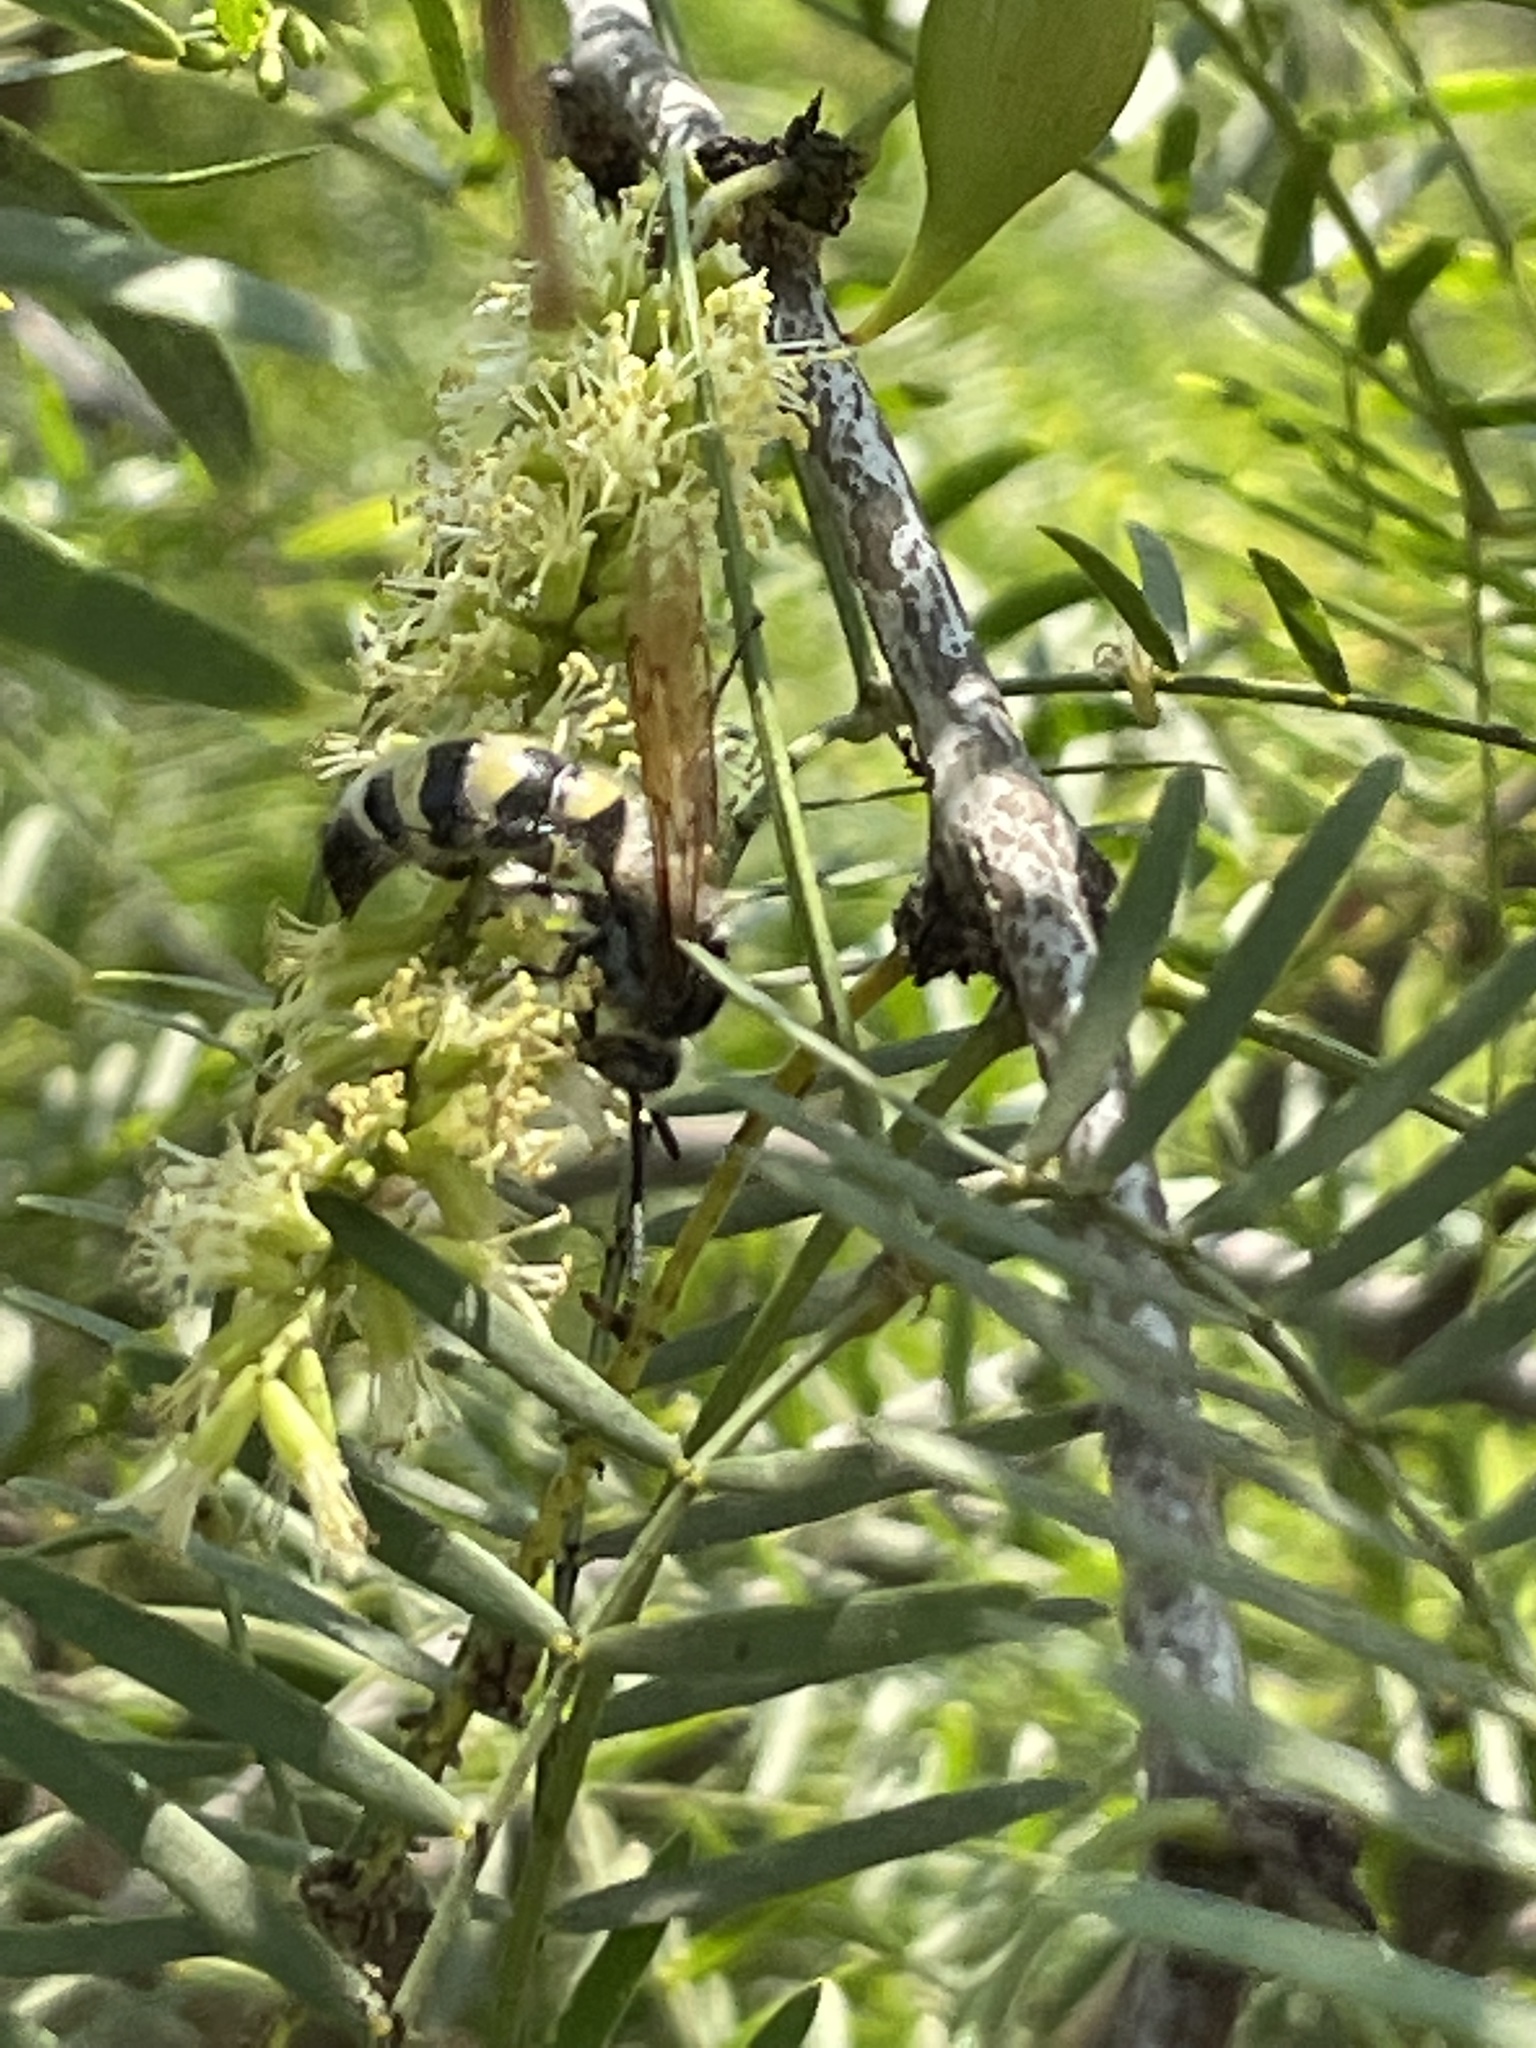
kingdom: Animalia
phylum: Arthropoda
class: Insecta
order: Hymenoptera
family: Scoliidae
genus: Dielis
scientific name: Dielis tolteca
